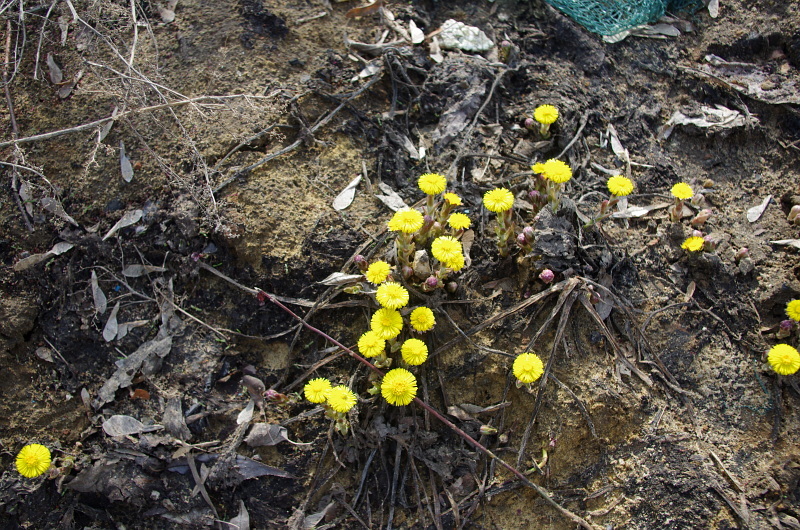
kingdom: Plantae
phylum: Tracheophyta
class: Magnoliopsida
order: Asterales
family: Asteraceae
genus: Tussilago
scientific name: Tussilago farfara
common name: Coltsfoot
